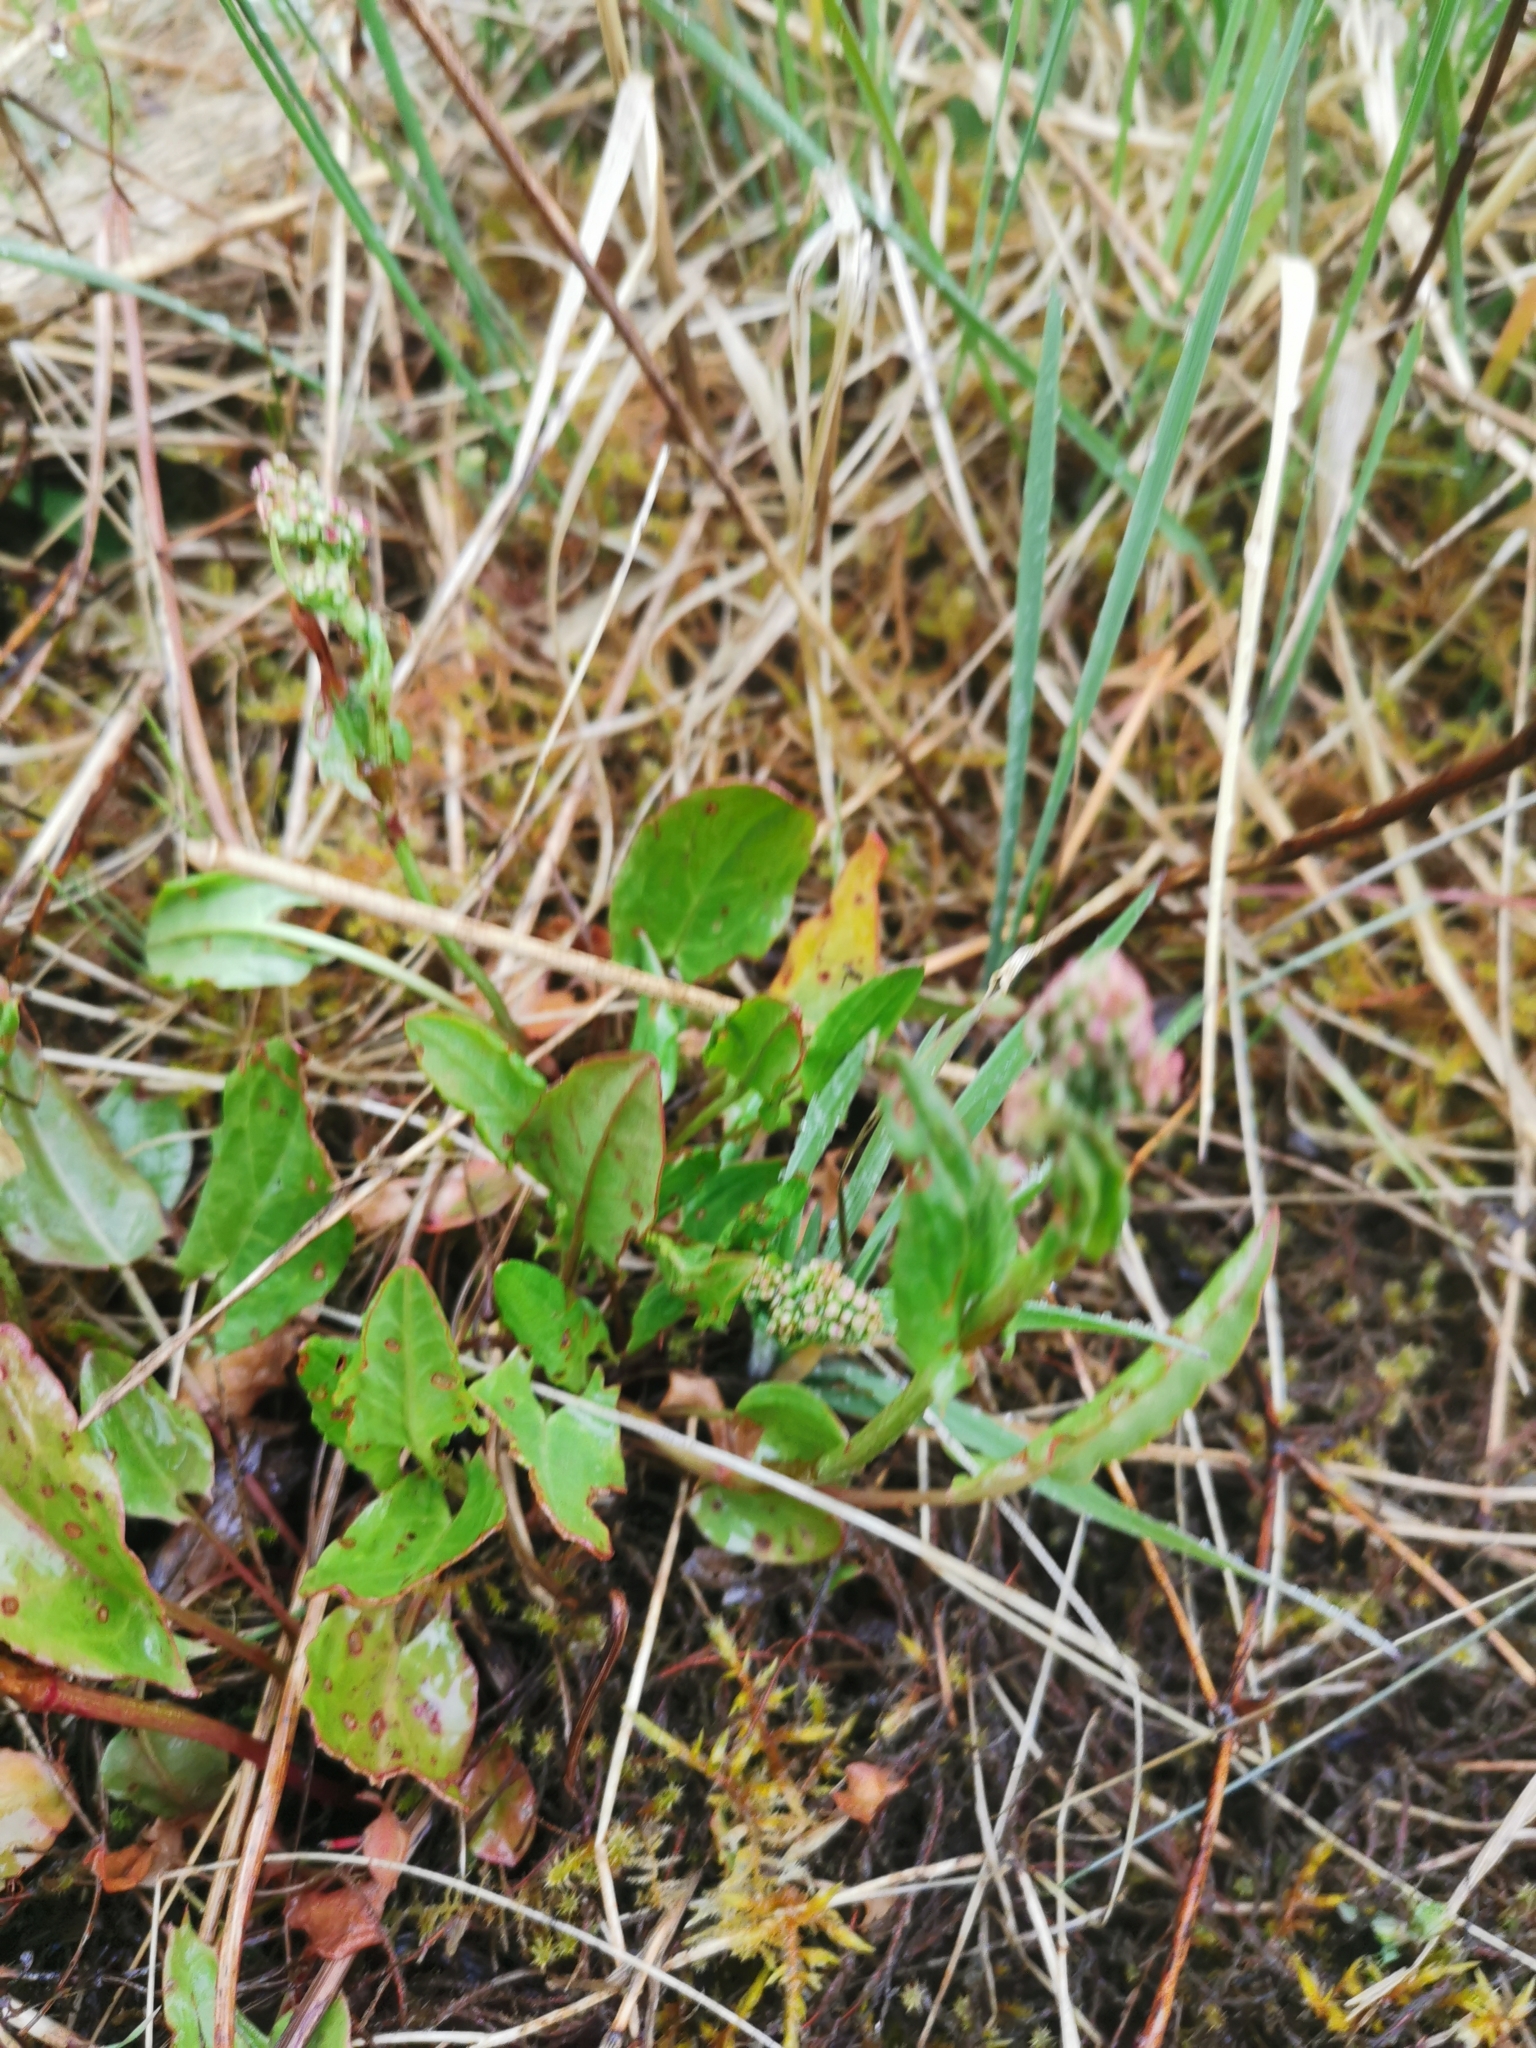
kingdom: Plantae
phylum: Tracheophyta
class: Magnoliopsida
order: Caryophyllales
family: Polygonaceae
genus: Rumex
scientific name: Rumex acetosa
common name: Garden sorrel
